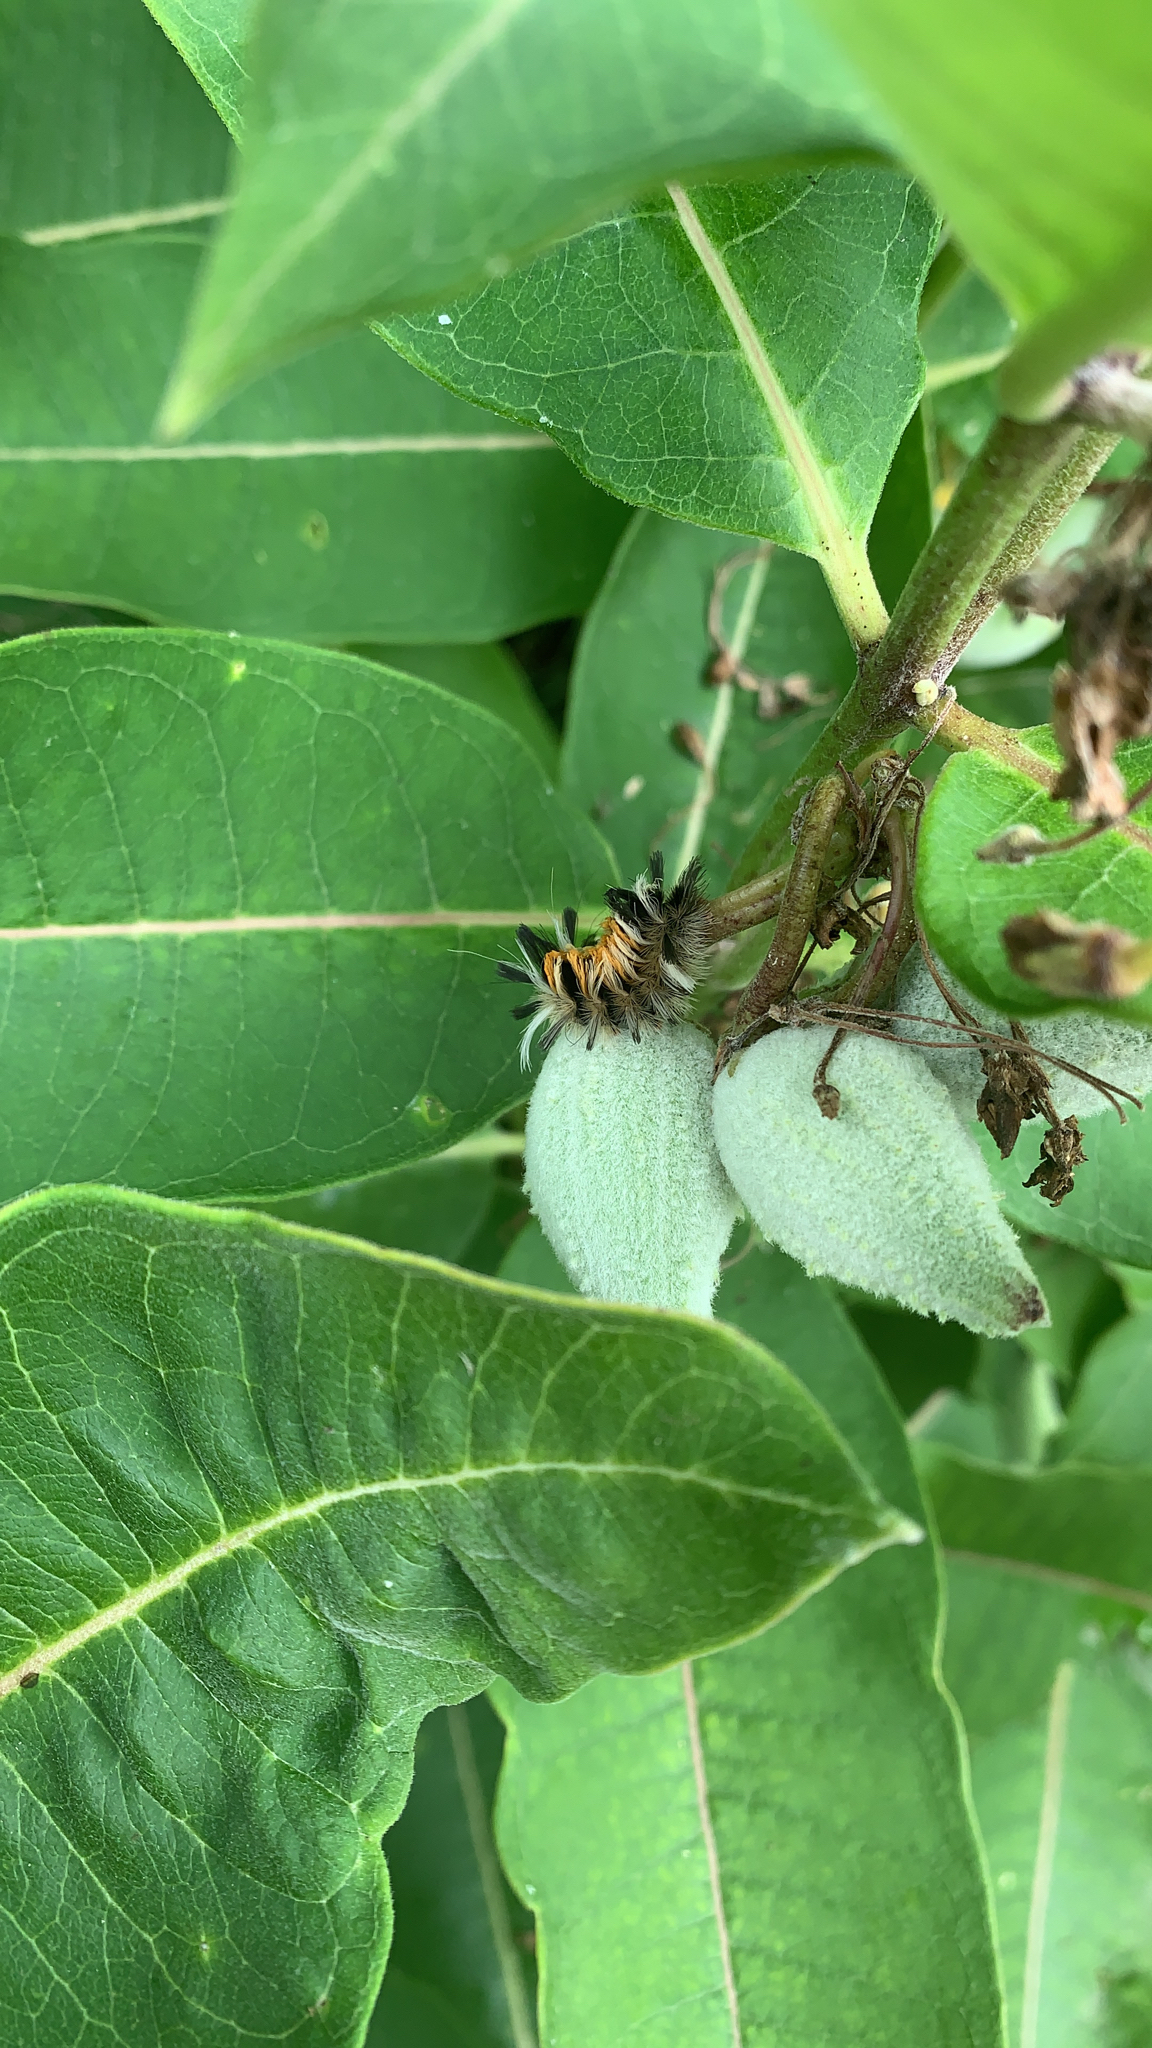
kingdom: Animalia
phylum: Arthropoda
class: Insecta
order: Lepidoptera
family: Erebidae
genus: Euchaetes
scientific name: Euchaetes egle
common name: Milkweed tussock moth
